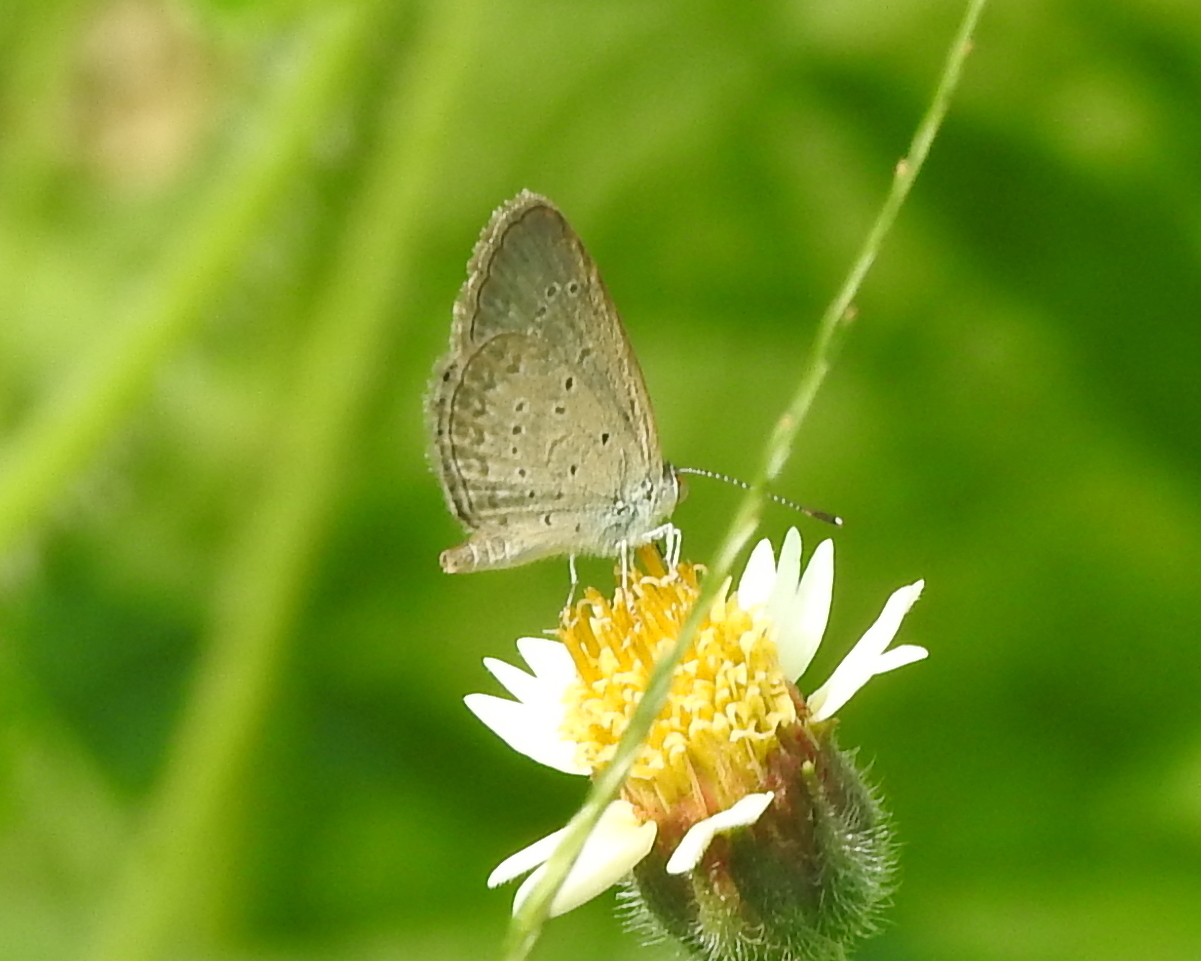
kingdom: Animalia
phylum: Arthropoda
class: Insecta
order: Lepidoptera
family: Lycaenidae
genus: Zizina
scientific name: Zizina otis
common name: Lesser grass blue
